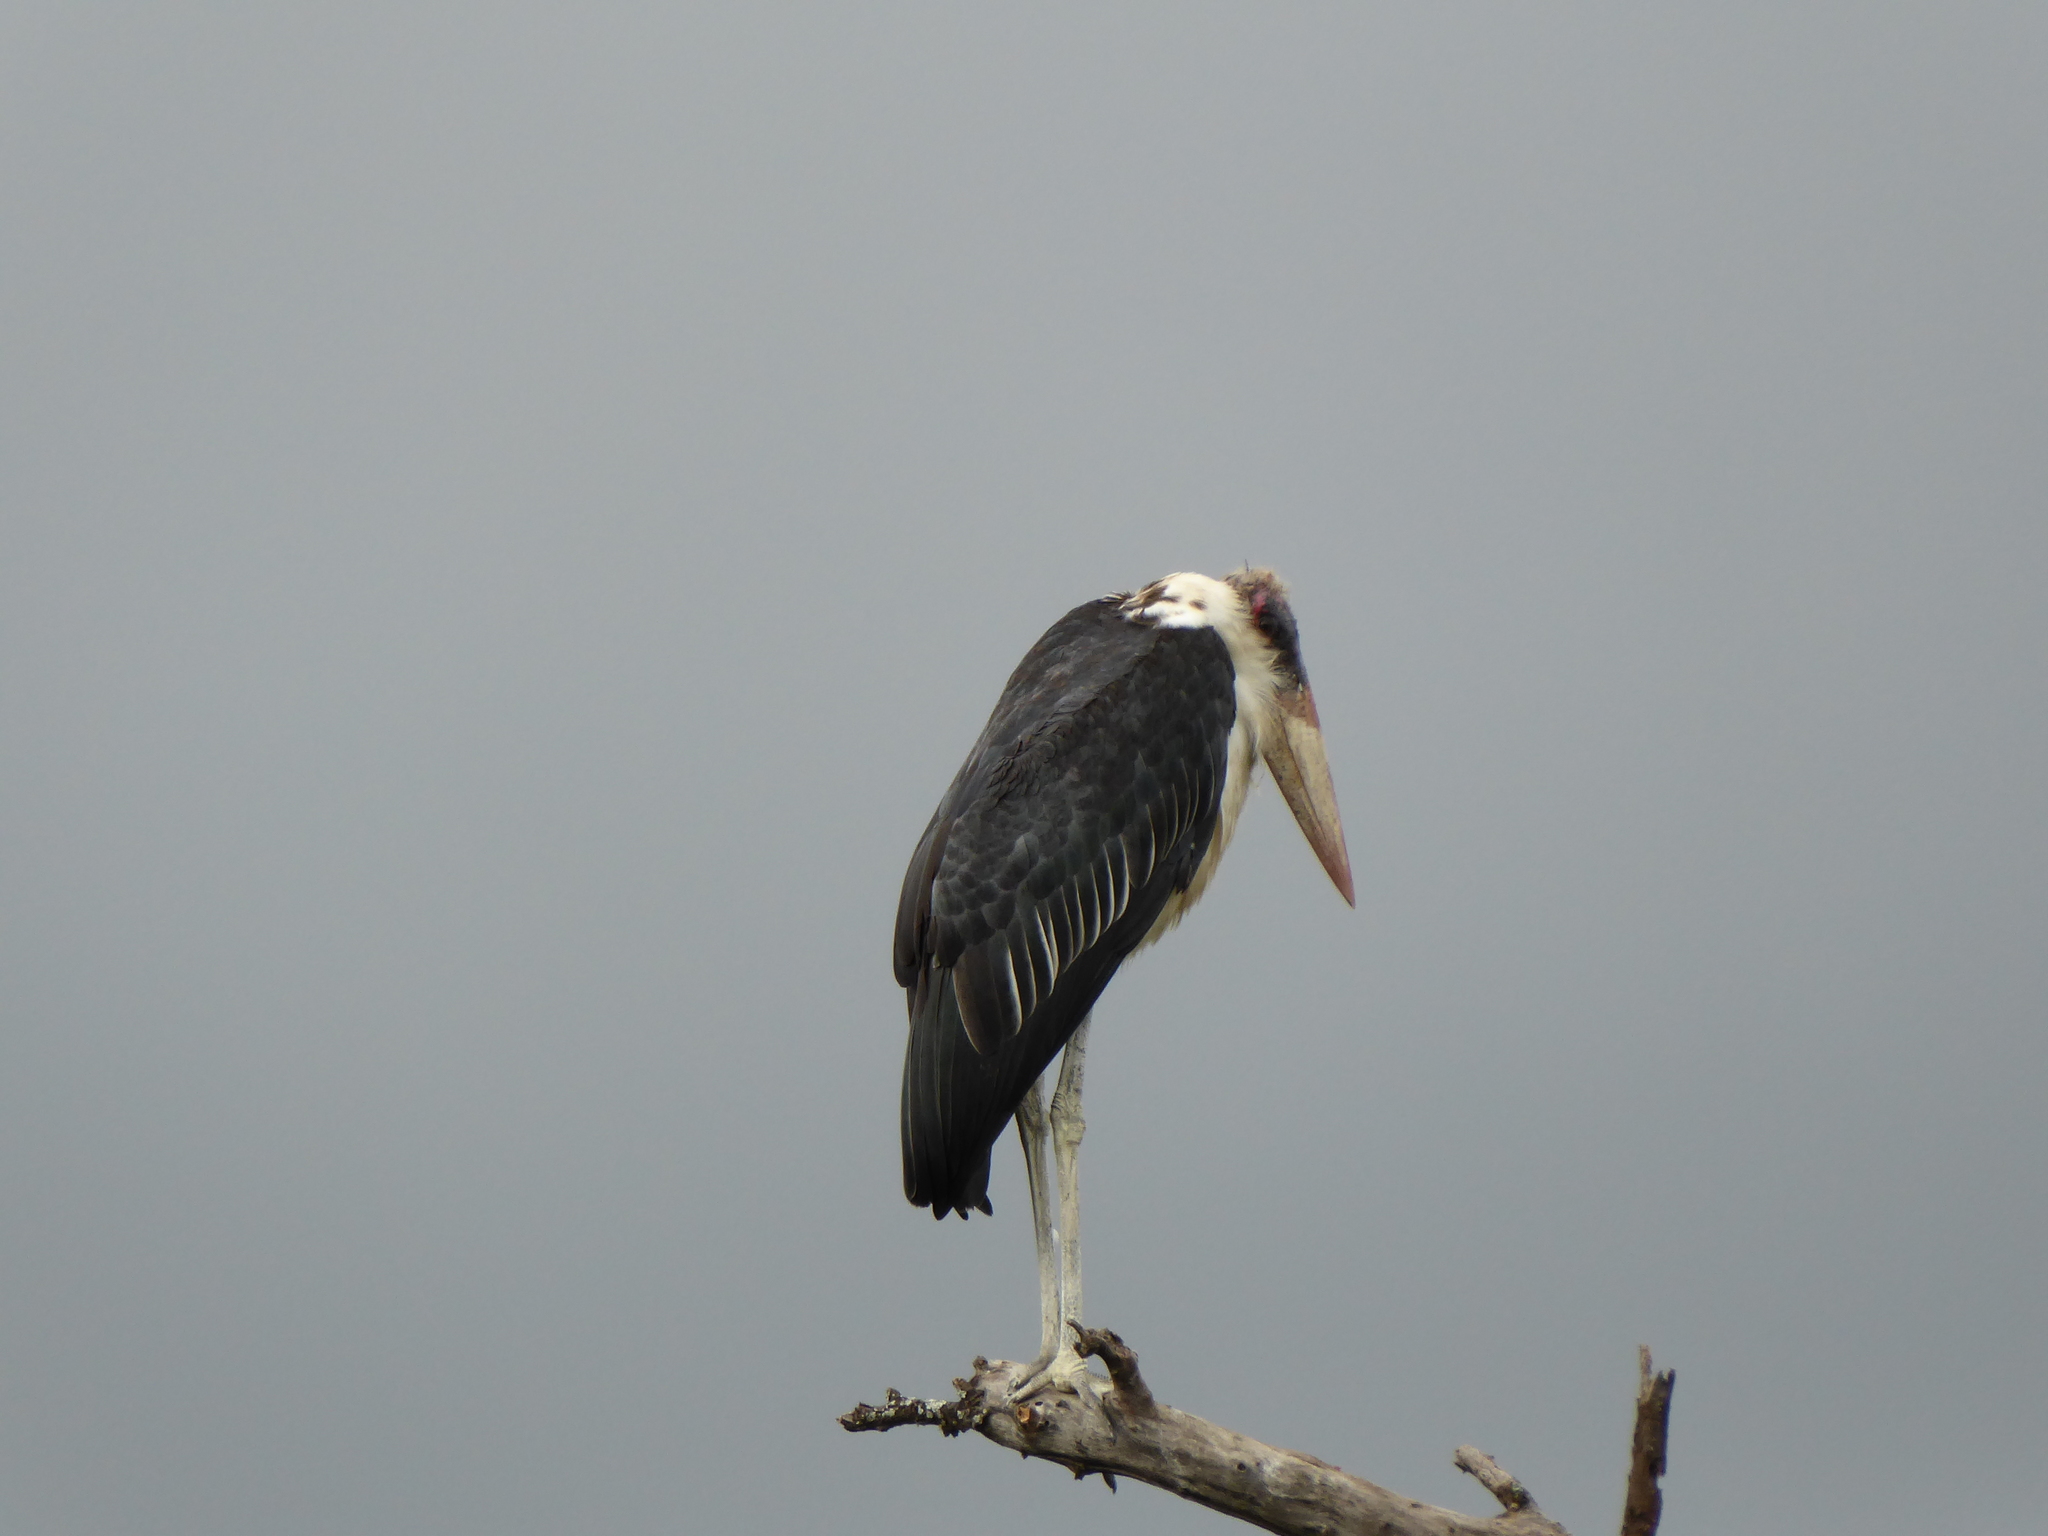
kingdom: Animalia
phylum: Chordata
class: Aves
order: Ciconiiformes
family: Ciconiidae
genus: Leptoptilos
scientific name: Leptoptilos crumenifer
